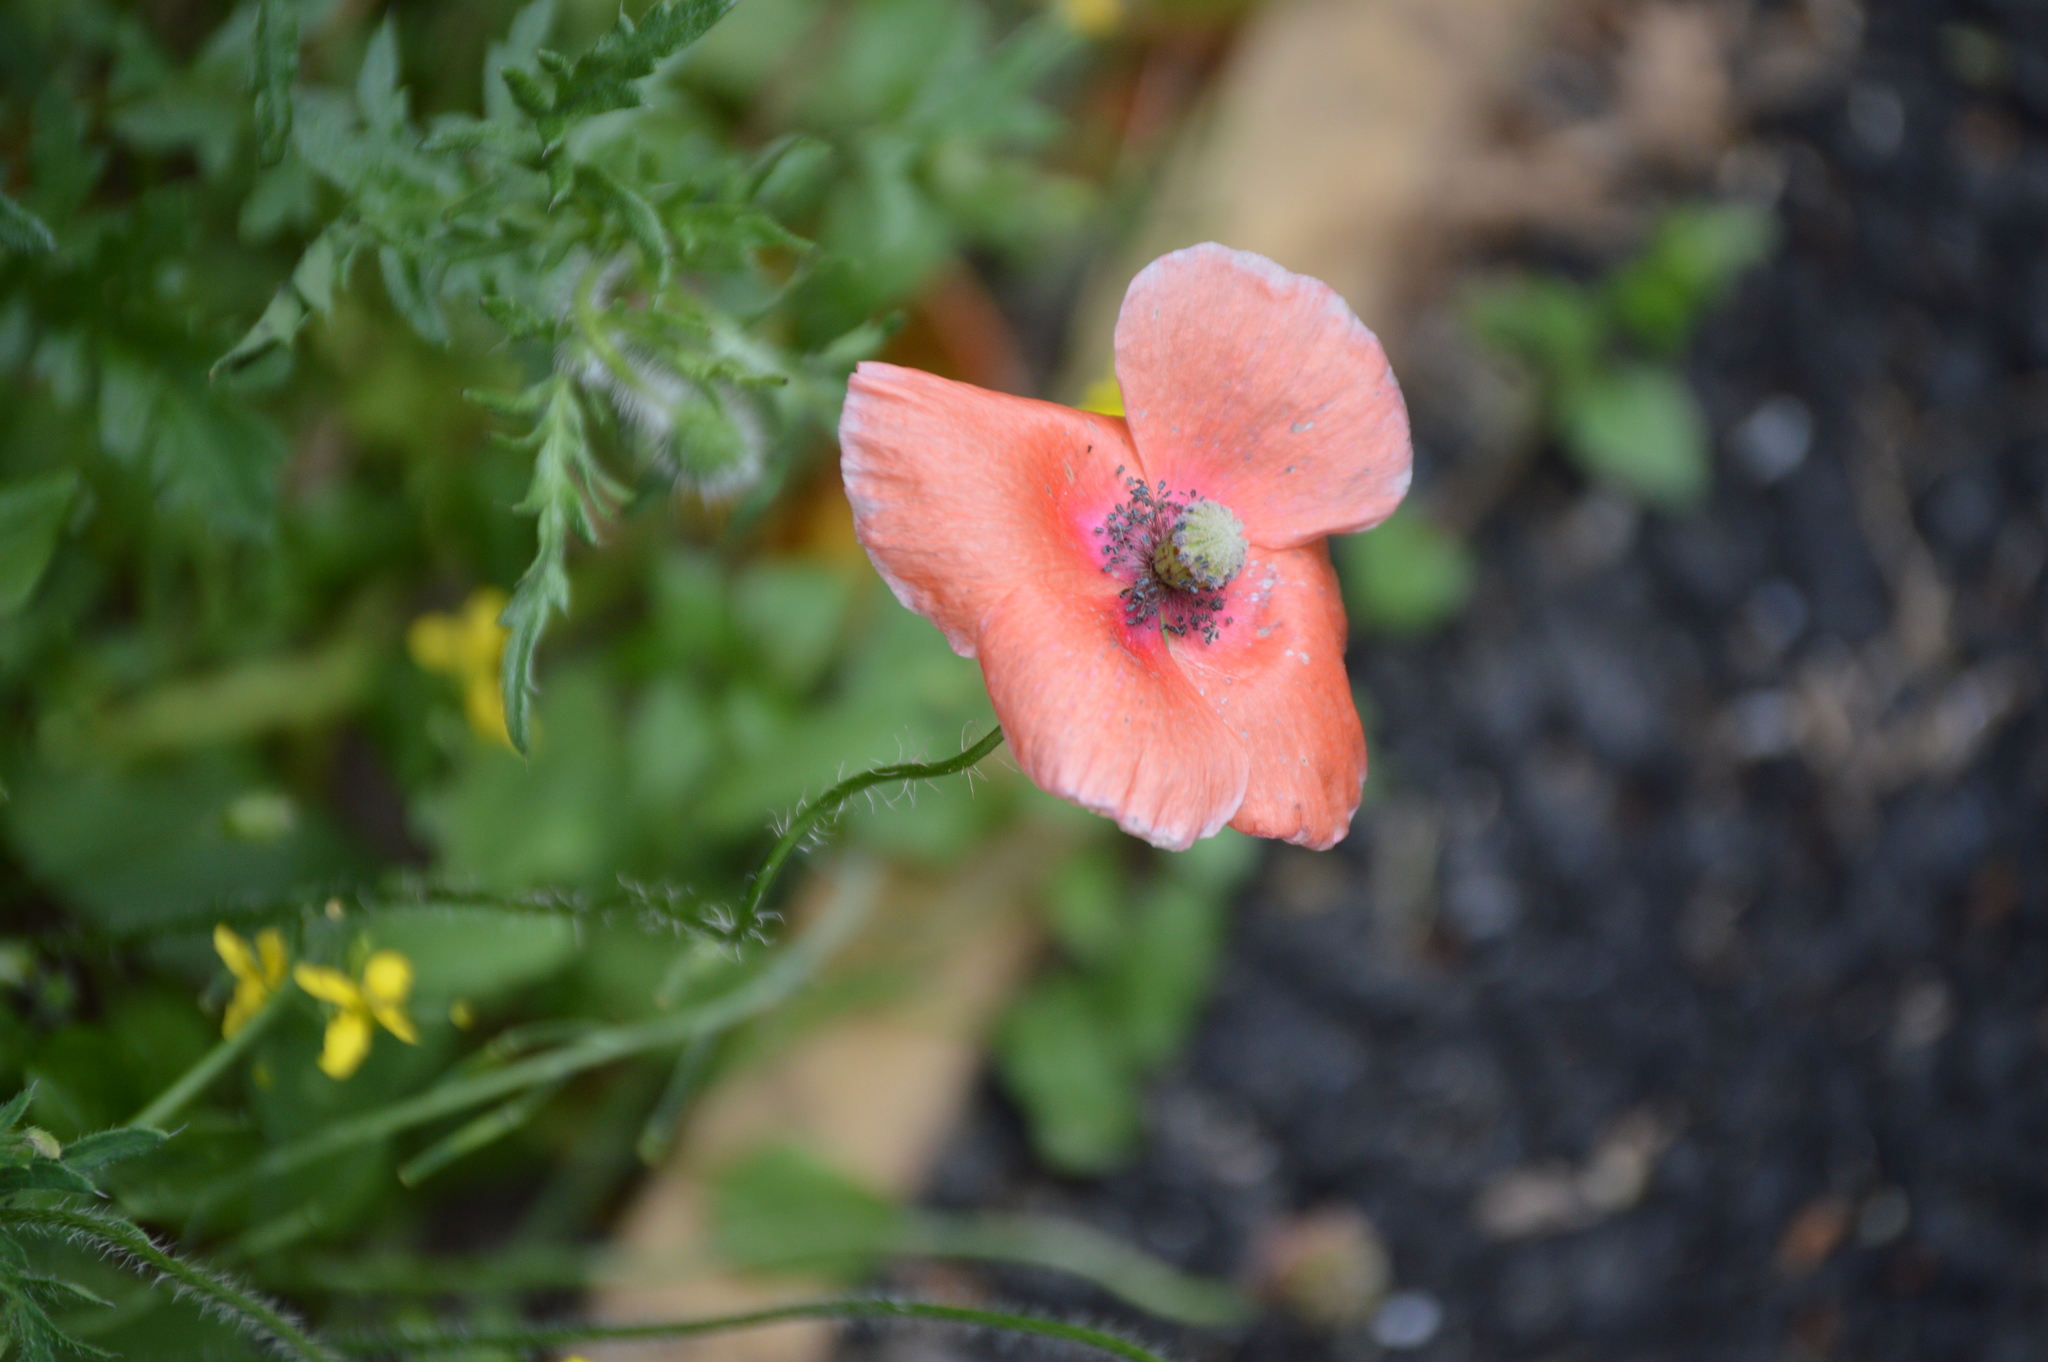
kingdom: Plantae
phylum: Tracheophyta
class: Magnoliopsida
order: Ranunculales
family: Papaveraceae
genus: Papaver
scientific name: Papaver rhoeas
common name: Corn poppy
